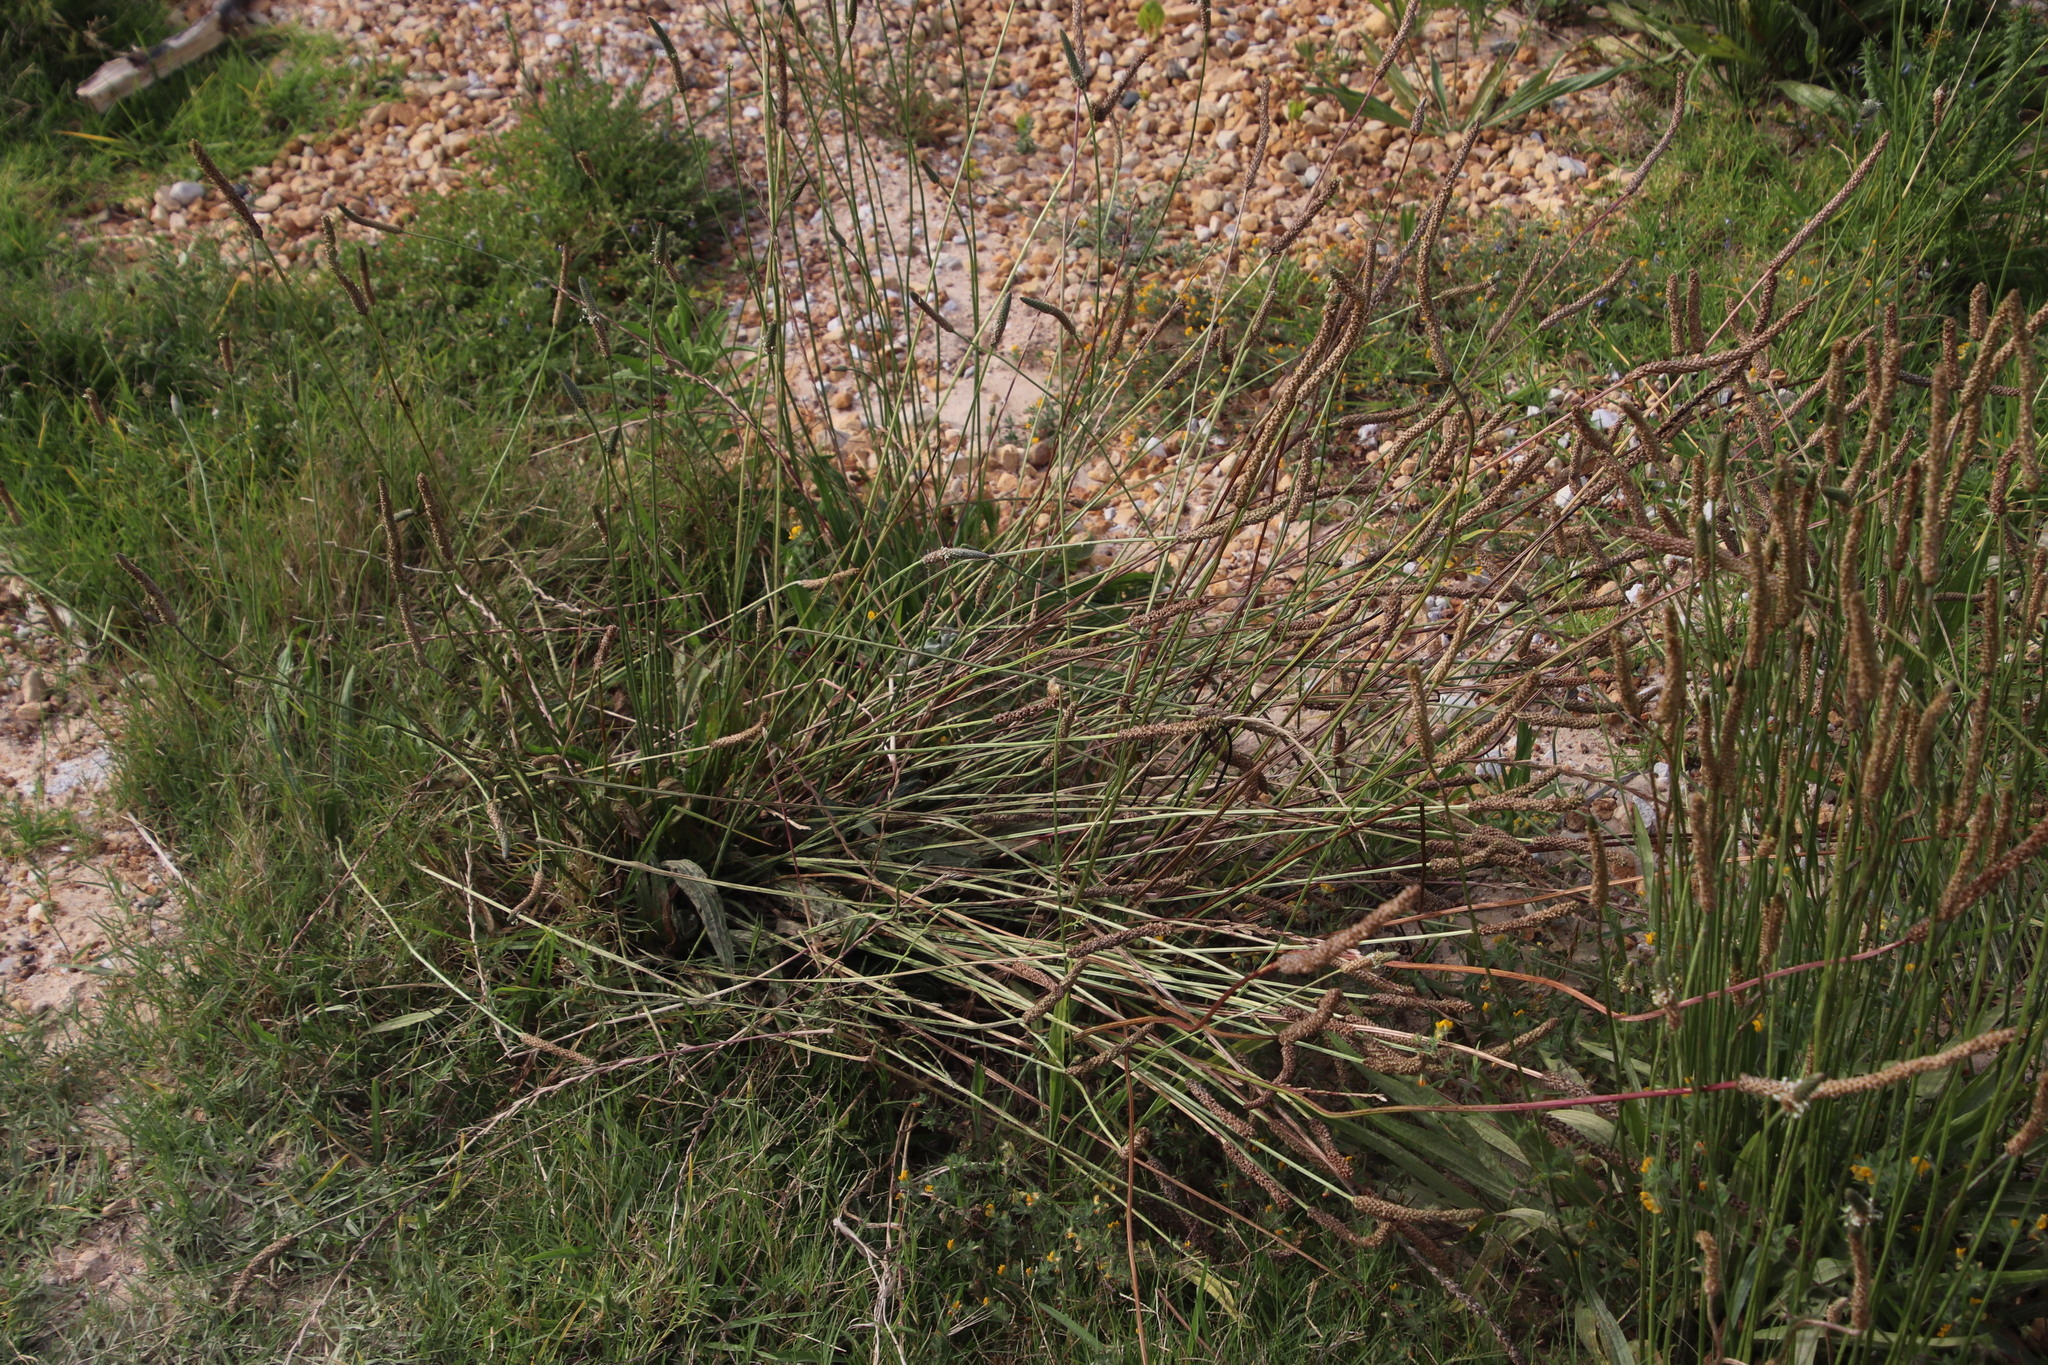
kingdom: Plantae
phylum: Tracheophyta
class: Magnoliopsida
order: Lamiales
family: Plantaginaceae
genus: Plantago
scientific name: Plantago lanceolata
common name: Ribwort plantain
